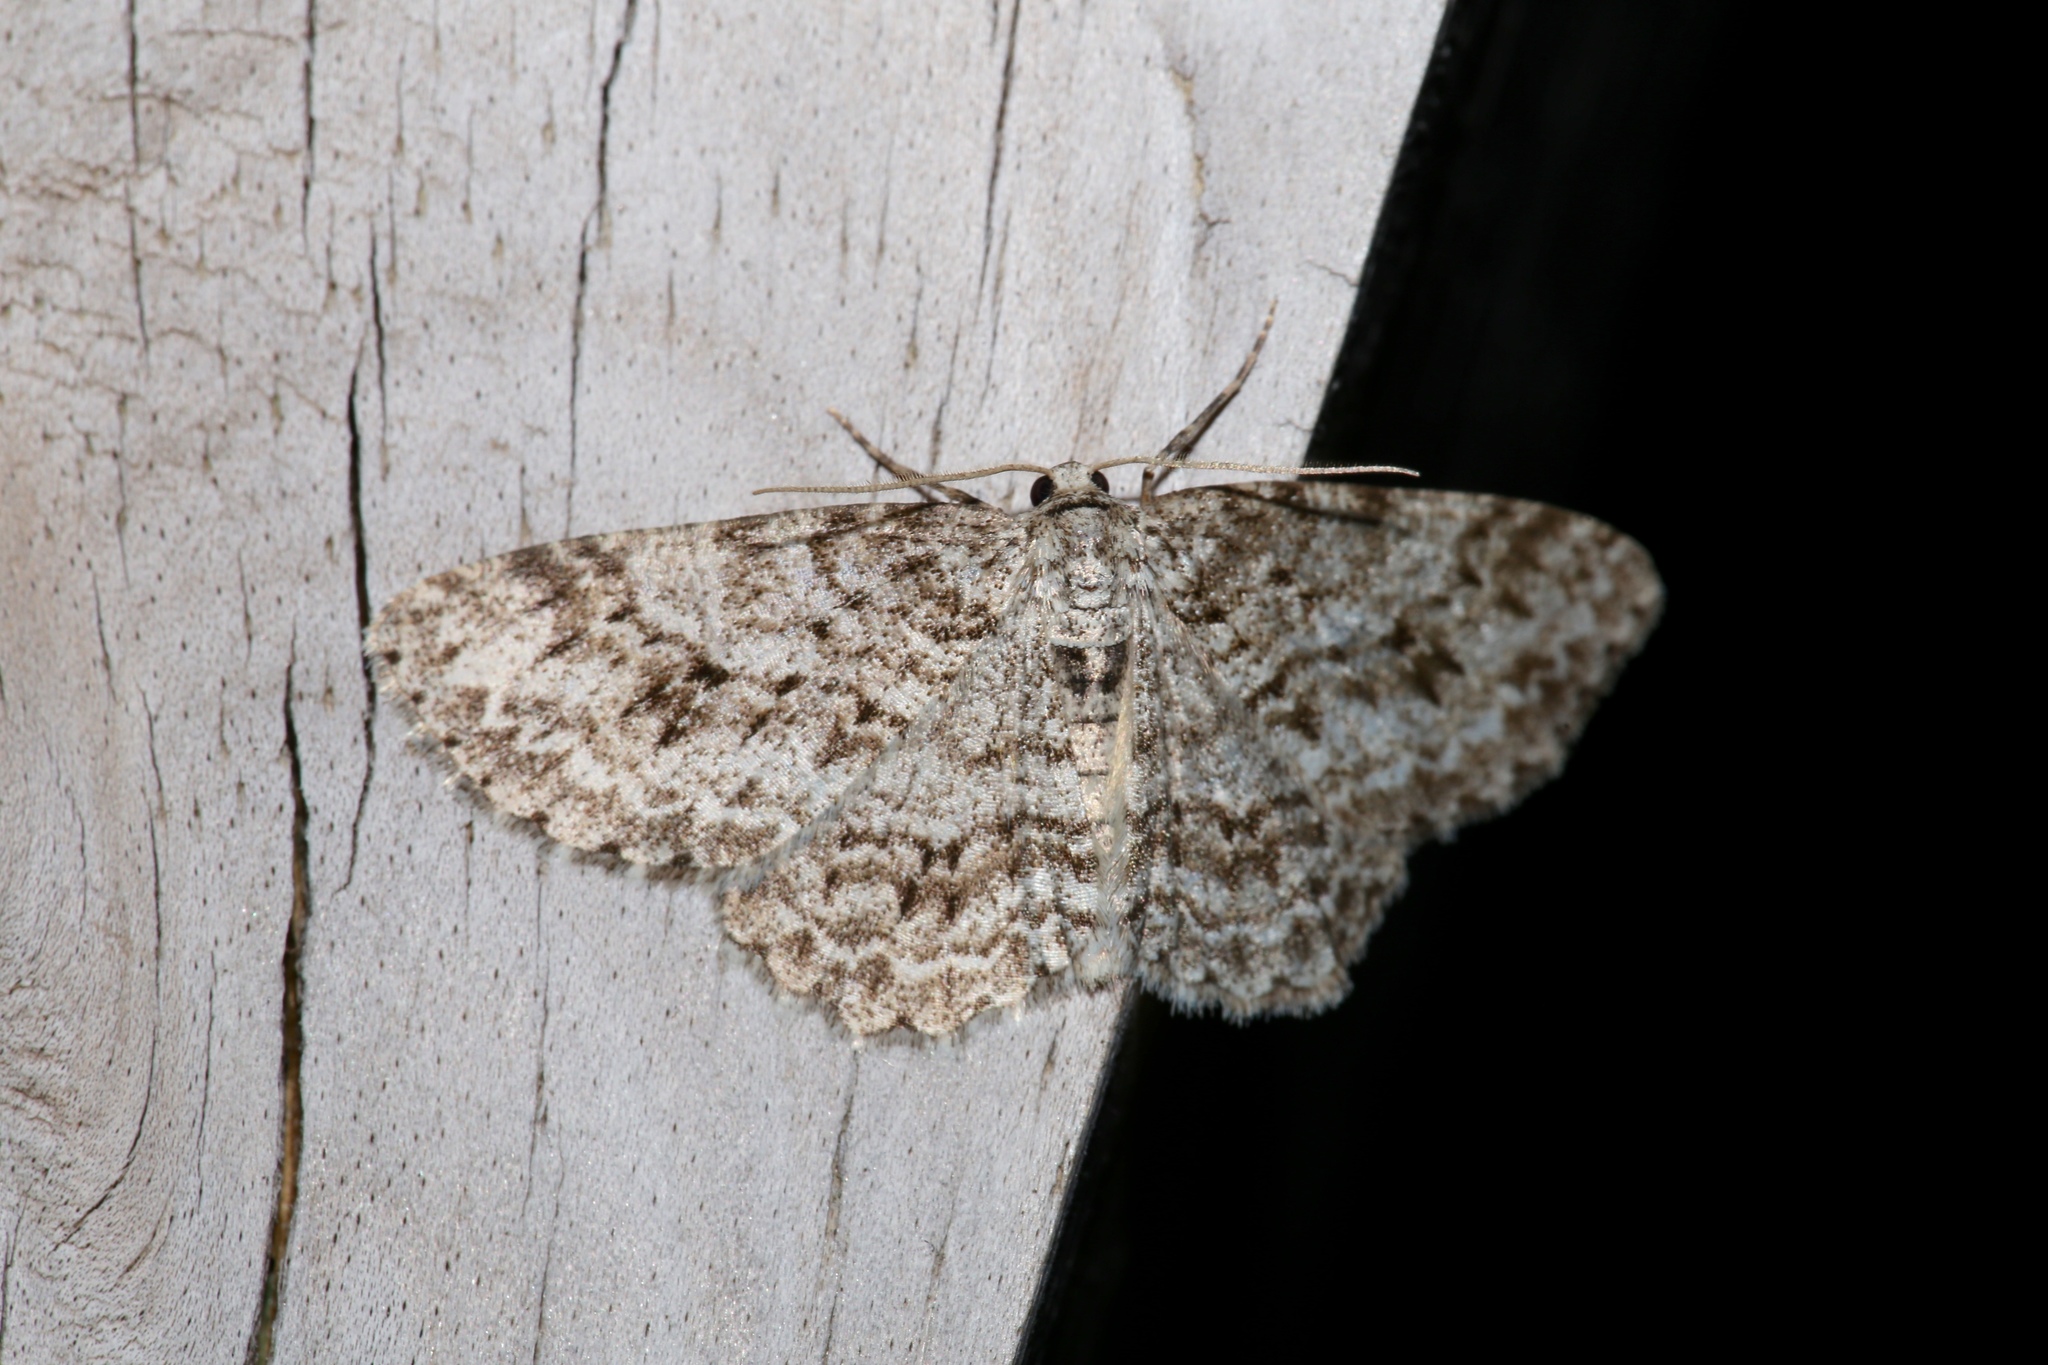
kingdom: Animalia
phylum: Arthropoda
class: Insecta
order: Lepidoptera
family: Geometridae
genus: Ectropis
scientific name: Ectropis crepuscularia
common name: Engrailed
